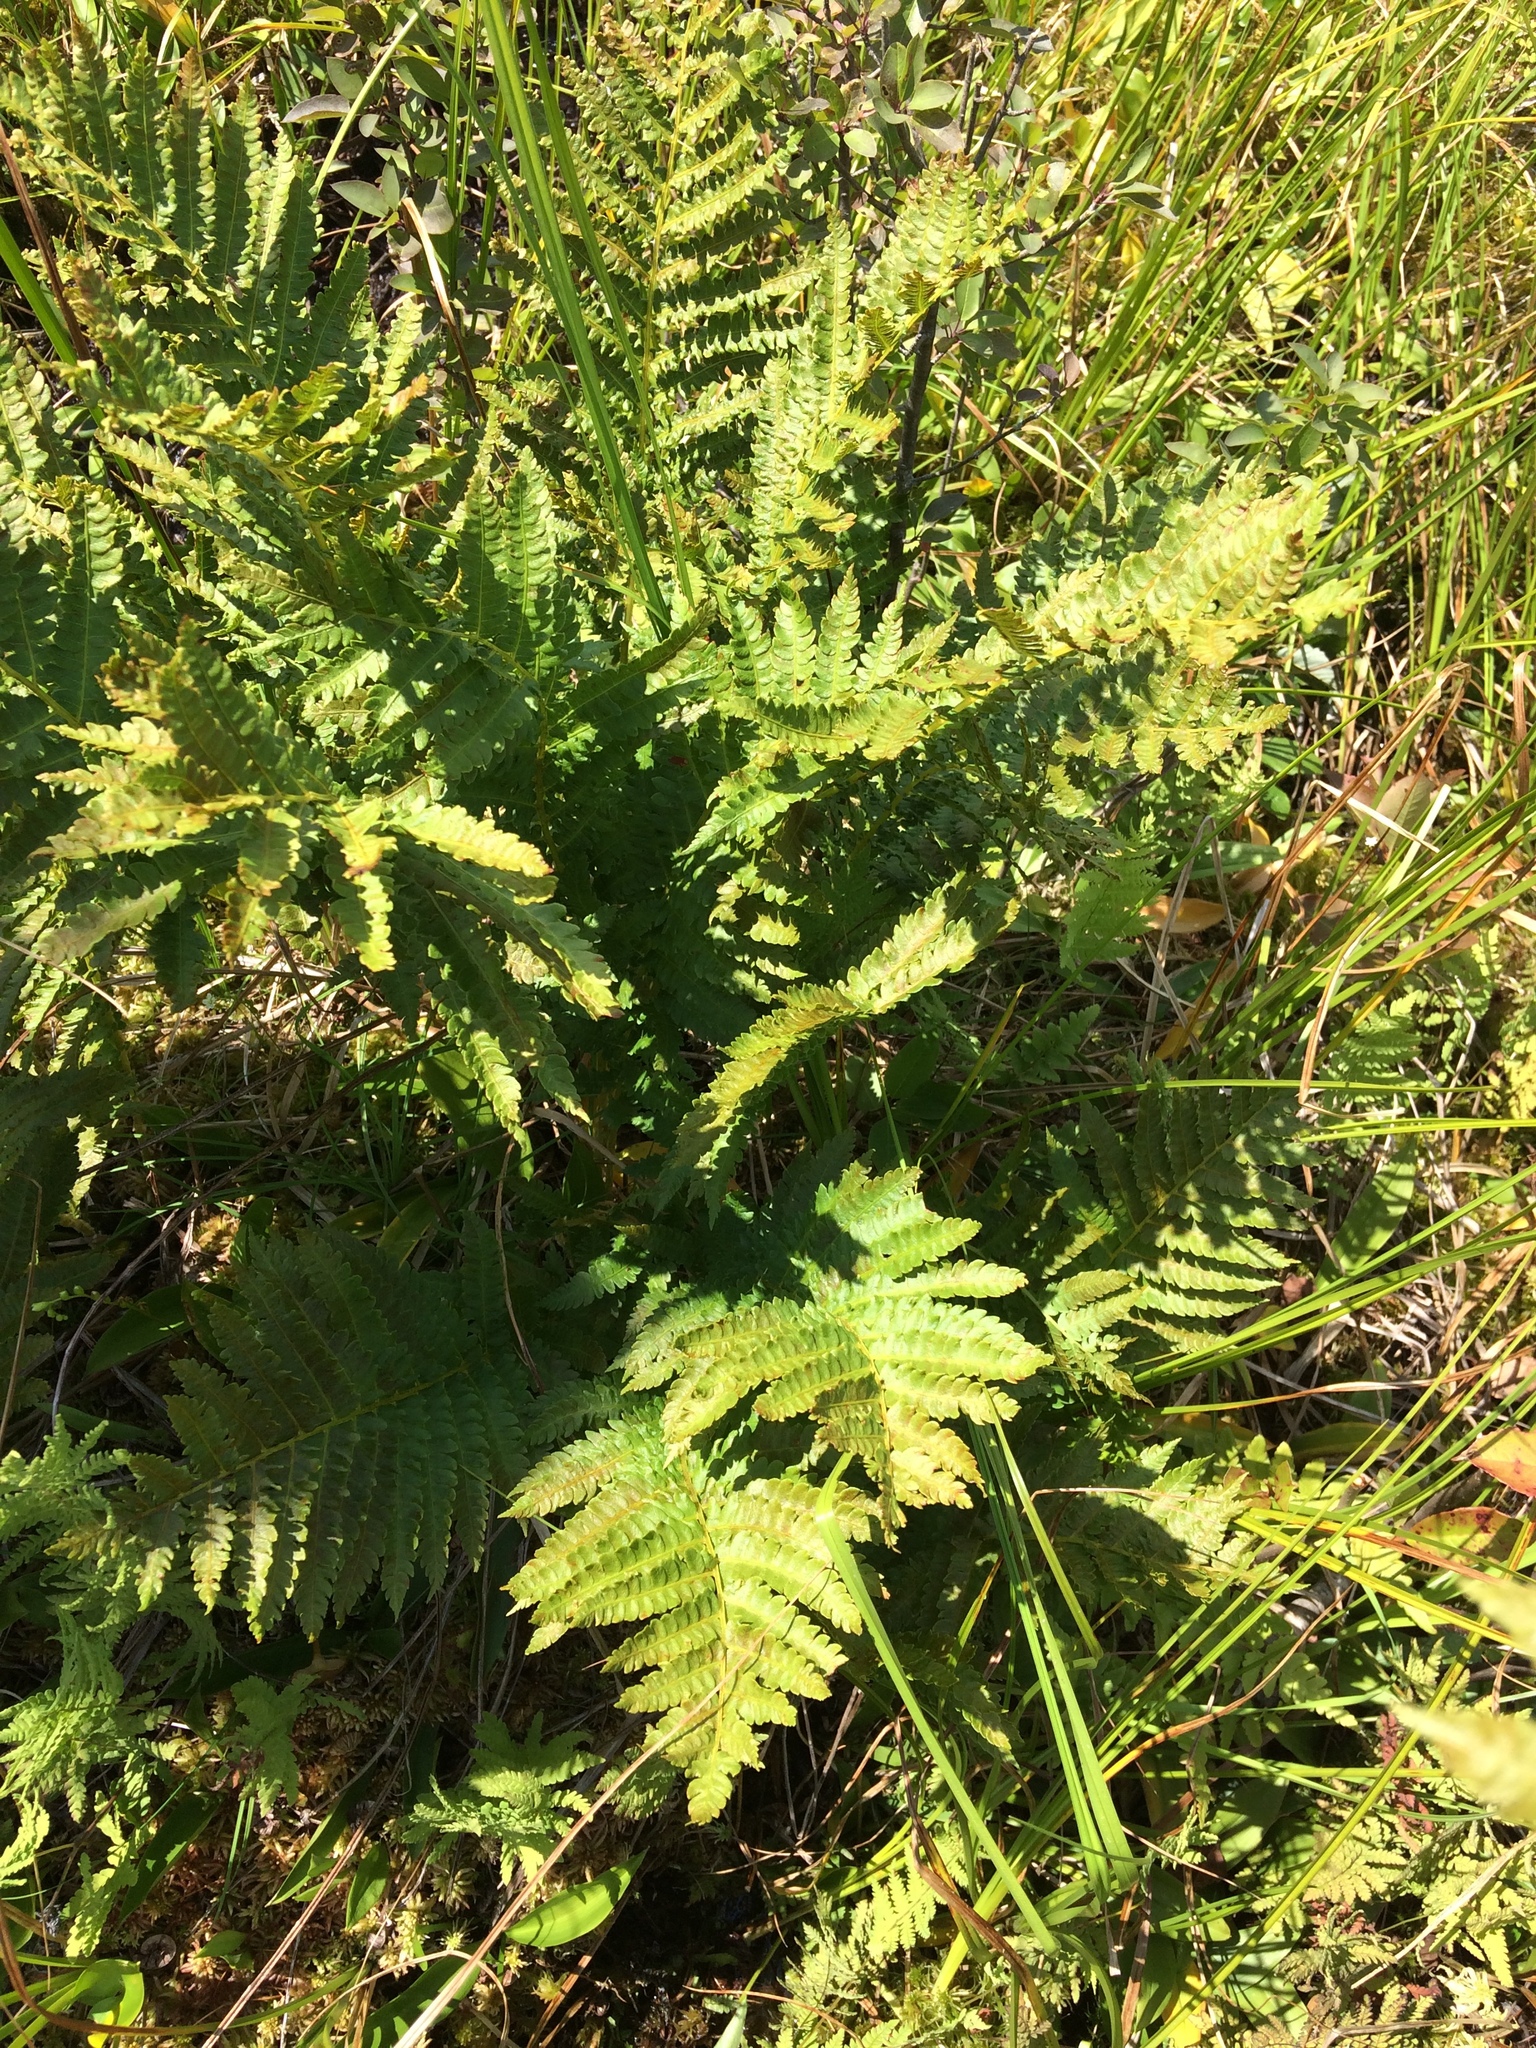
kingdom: Plantae
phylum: Tracheophyta
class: Polypodiopsida
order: Osmundales
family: Osmundaceae
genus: Osmundastrum
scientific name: Osmundastrum cinnamomeum
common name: Cinnamon fern
